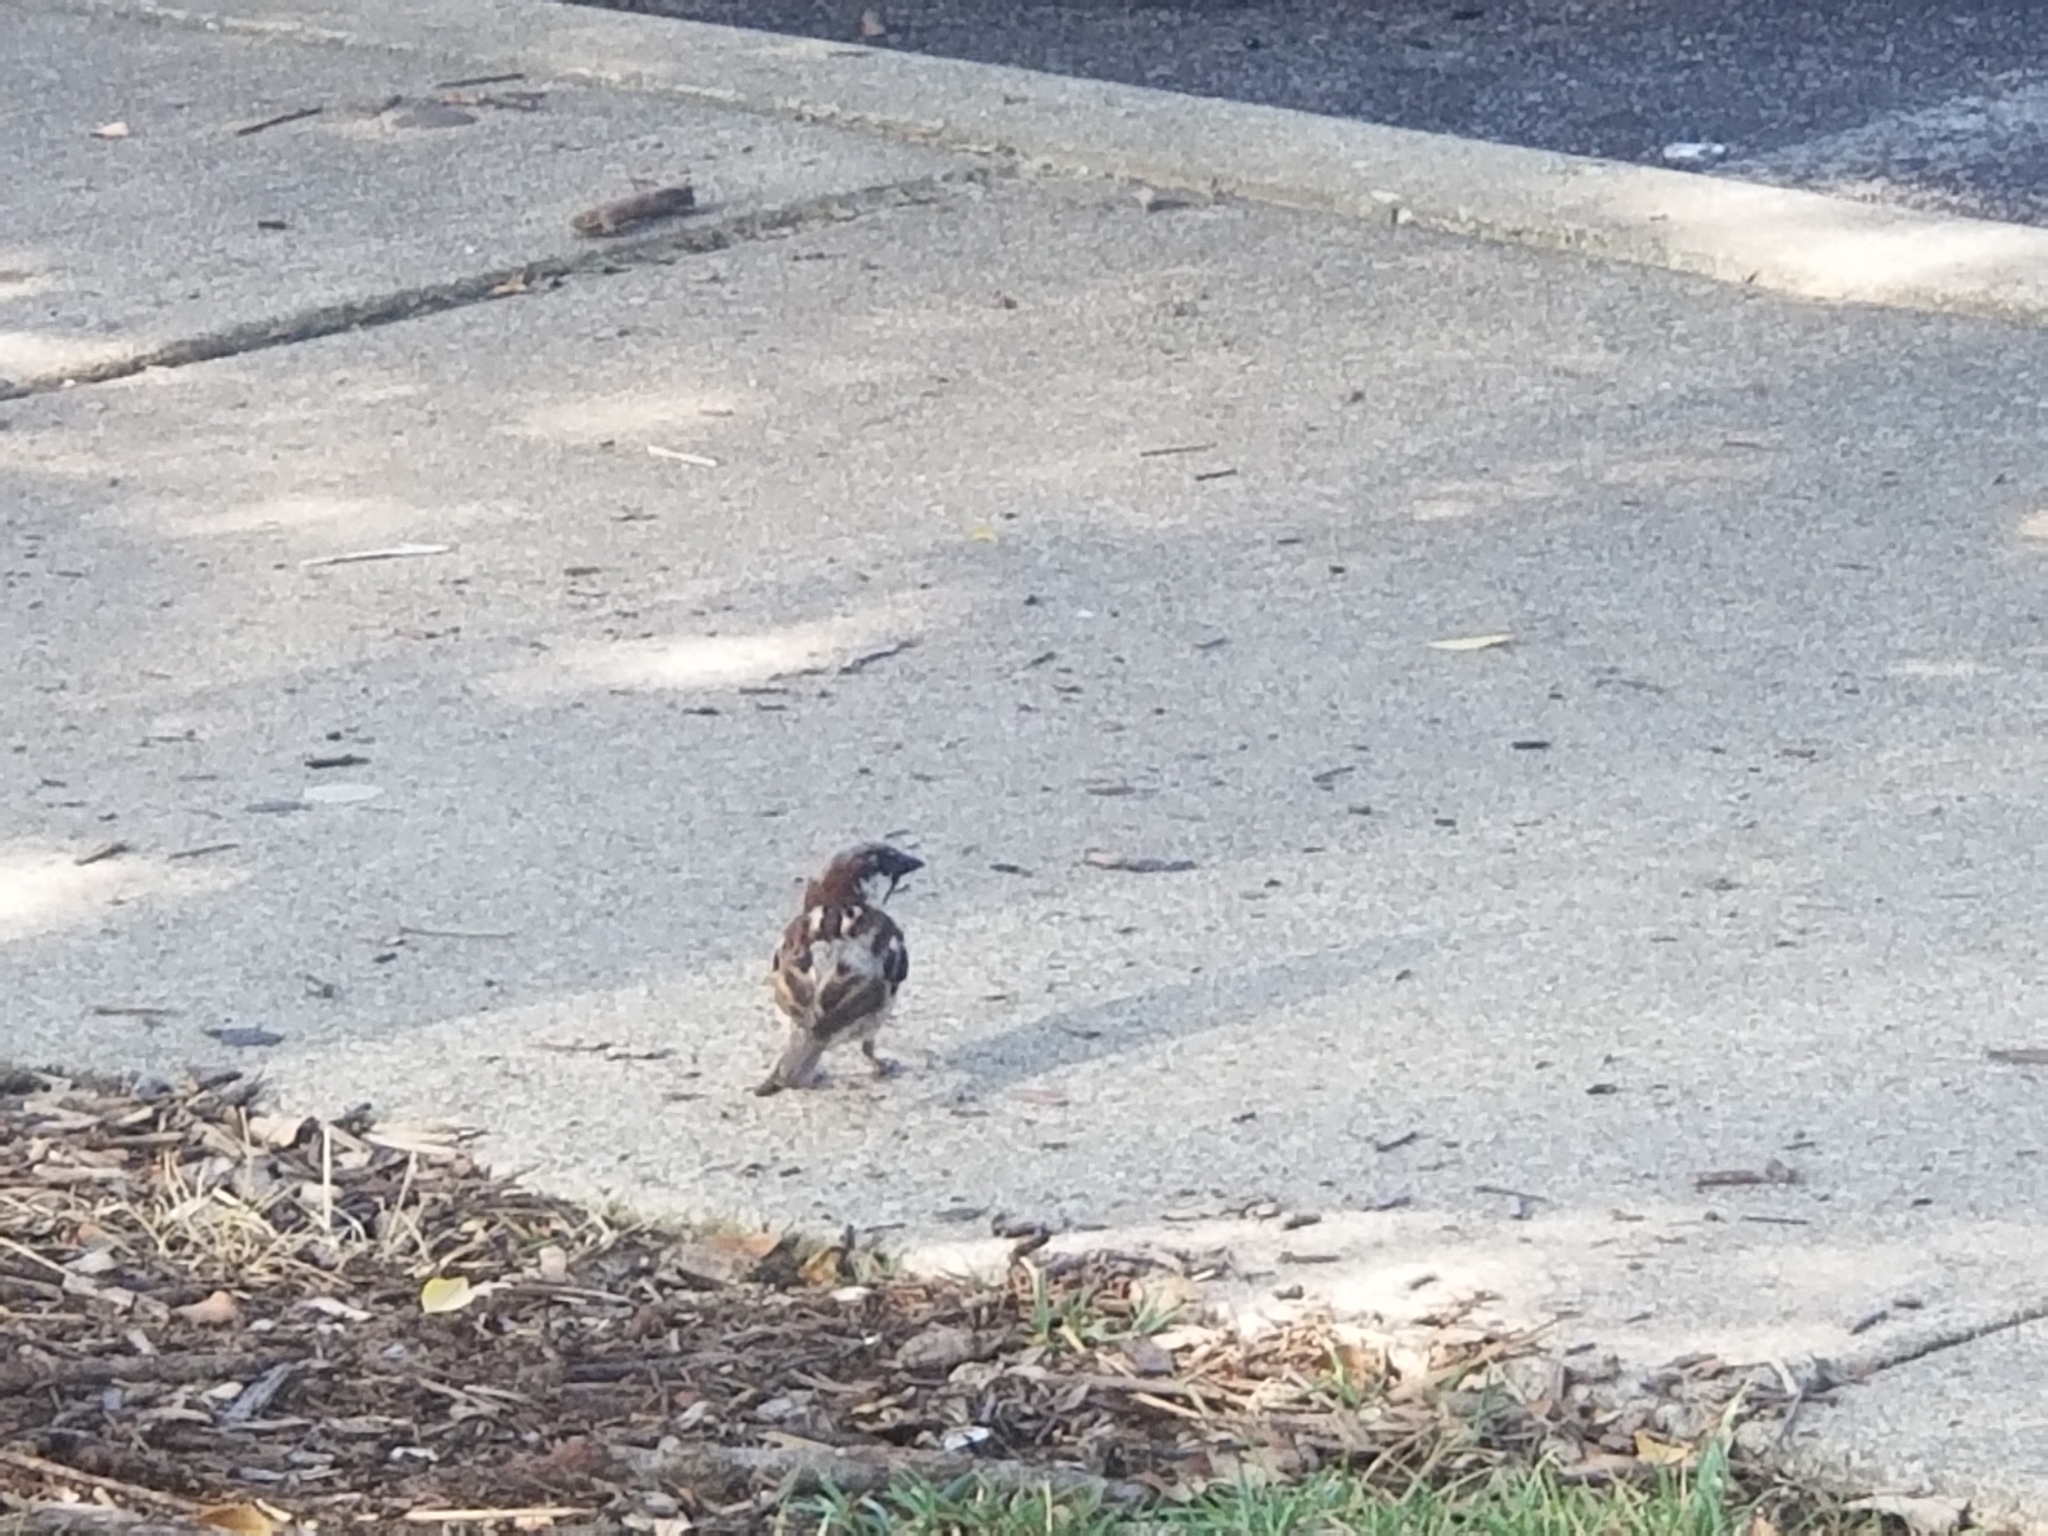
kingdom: Animalia
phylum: Chordata
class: Aves
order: Passeriformes
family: Passeridae
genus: Passer
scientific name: Passer domesticus
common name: House sparrow
